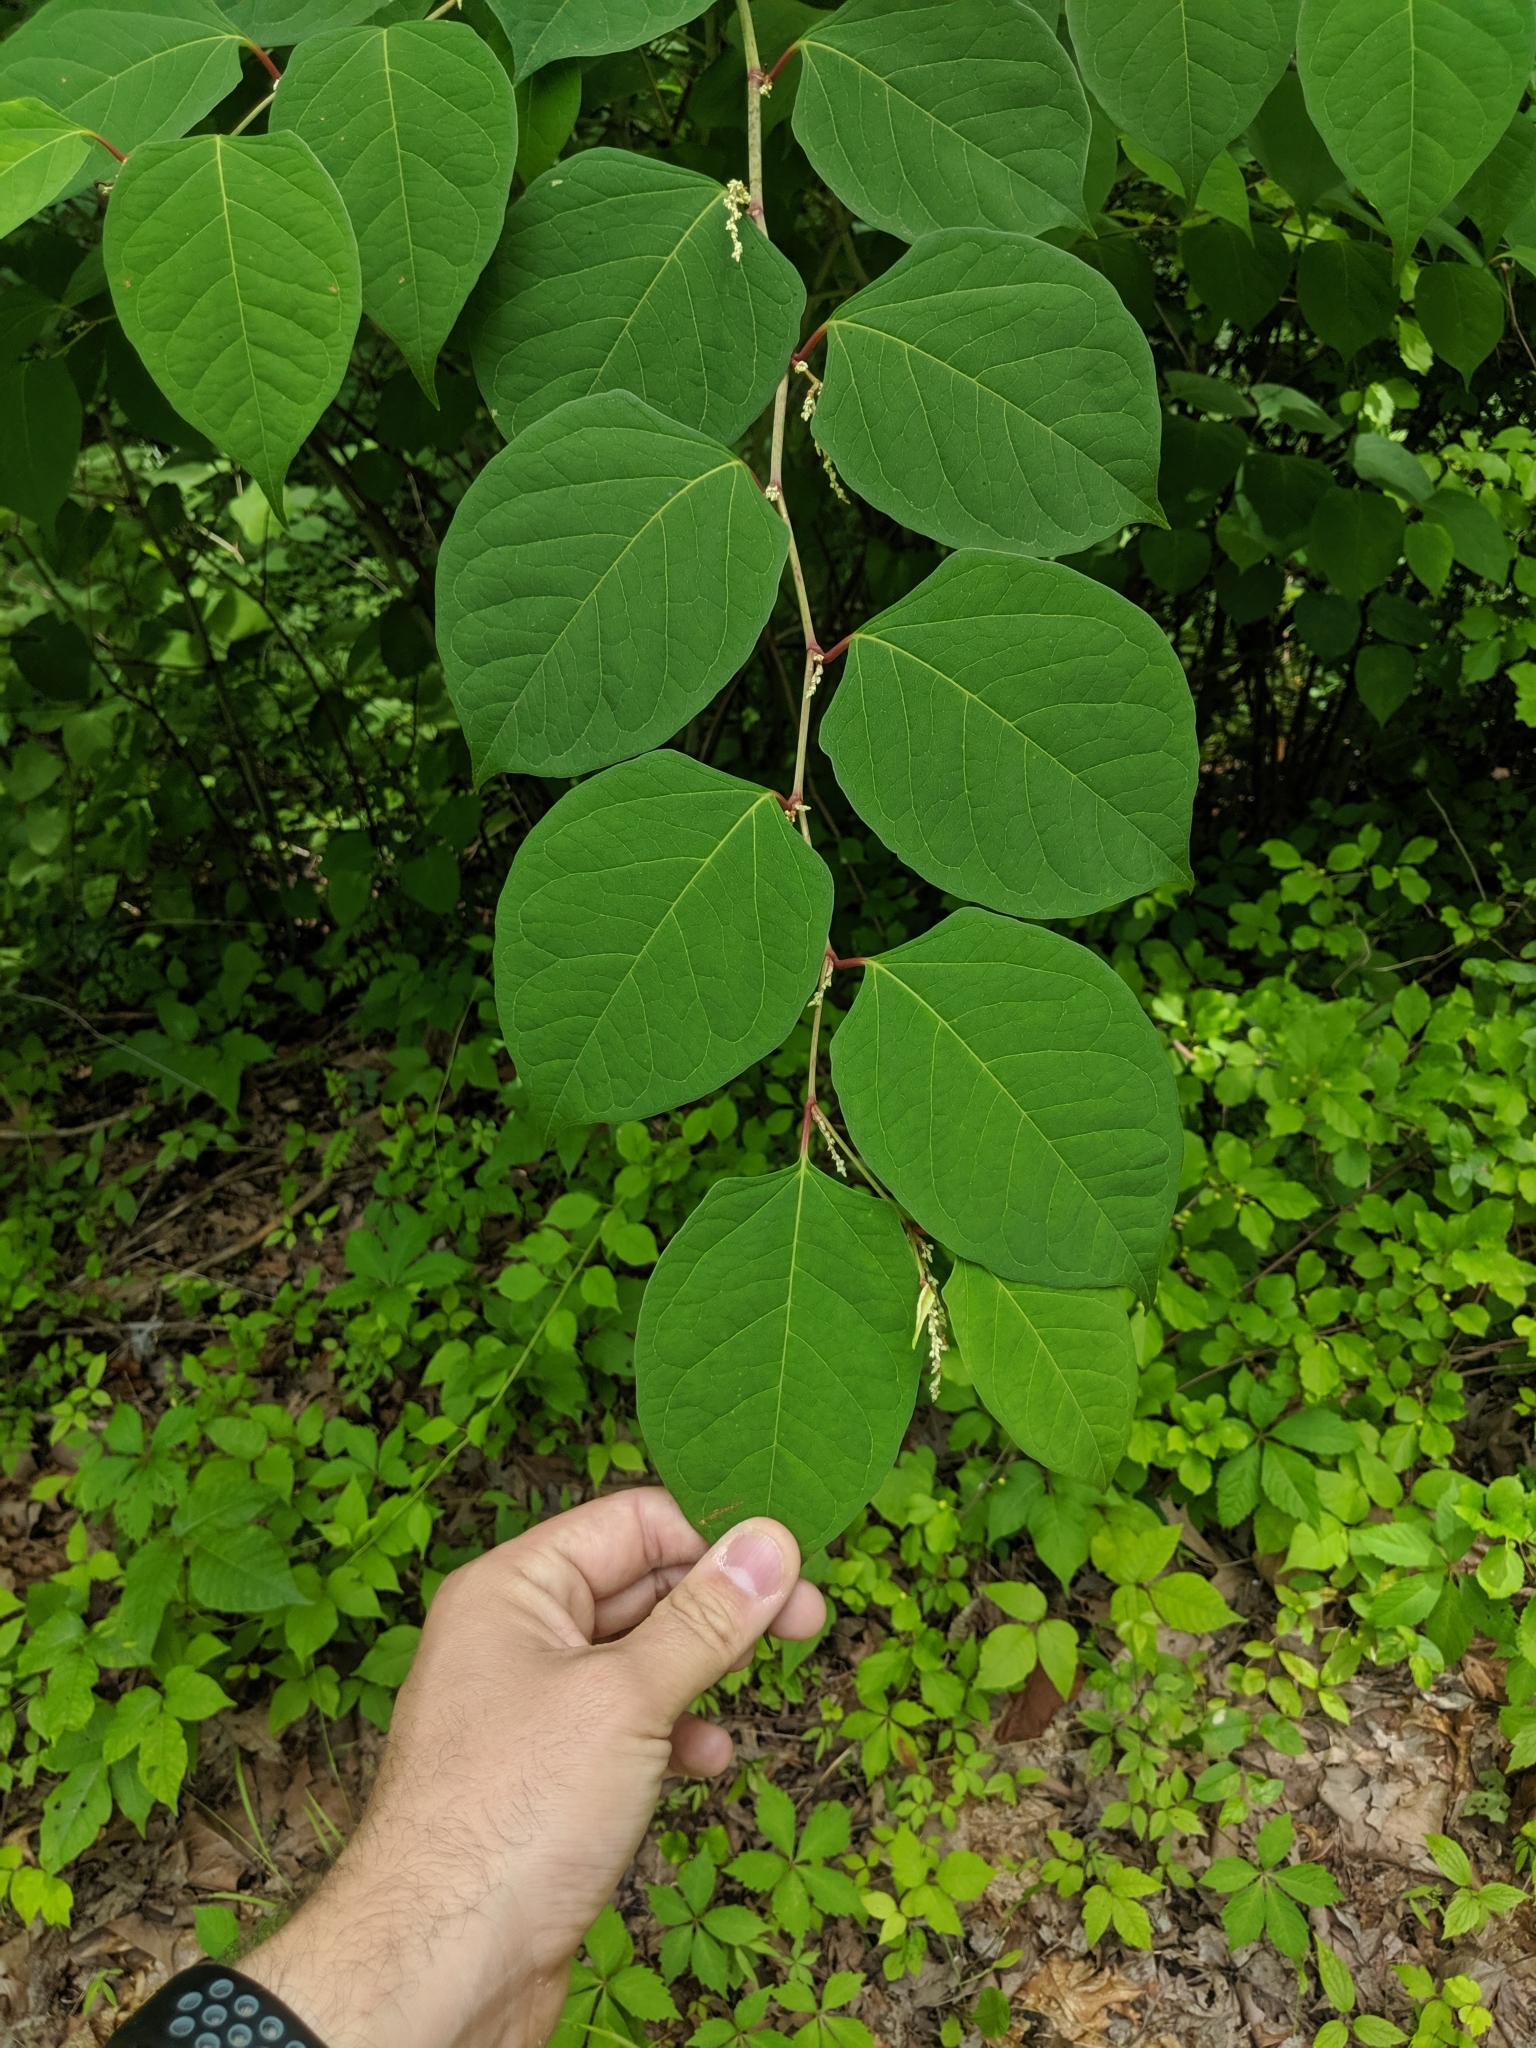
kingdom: Plantae
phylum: Tracheophyta
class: Magnoliopsida
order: Caryophyllales
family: Polygonaceae
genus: Reynoutria
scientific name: Reynoutria japonica
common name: Japanese knotweed
